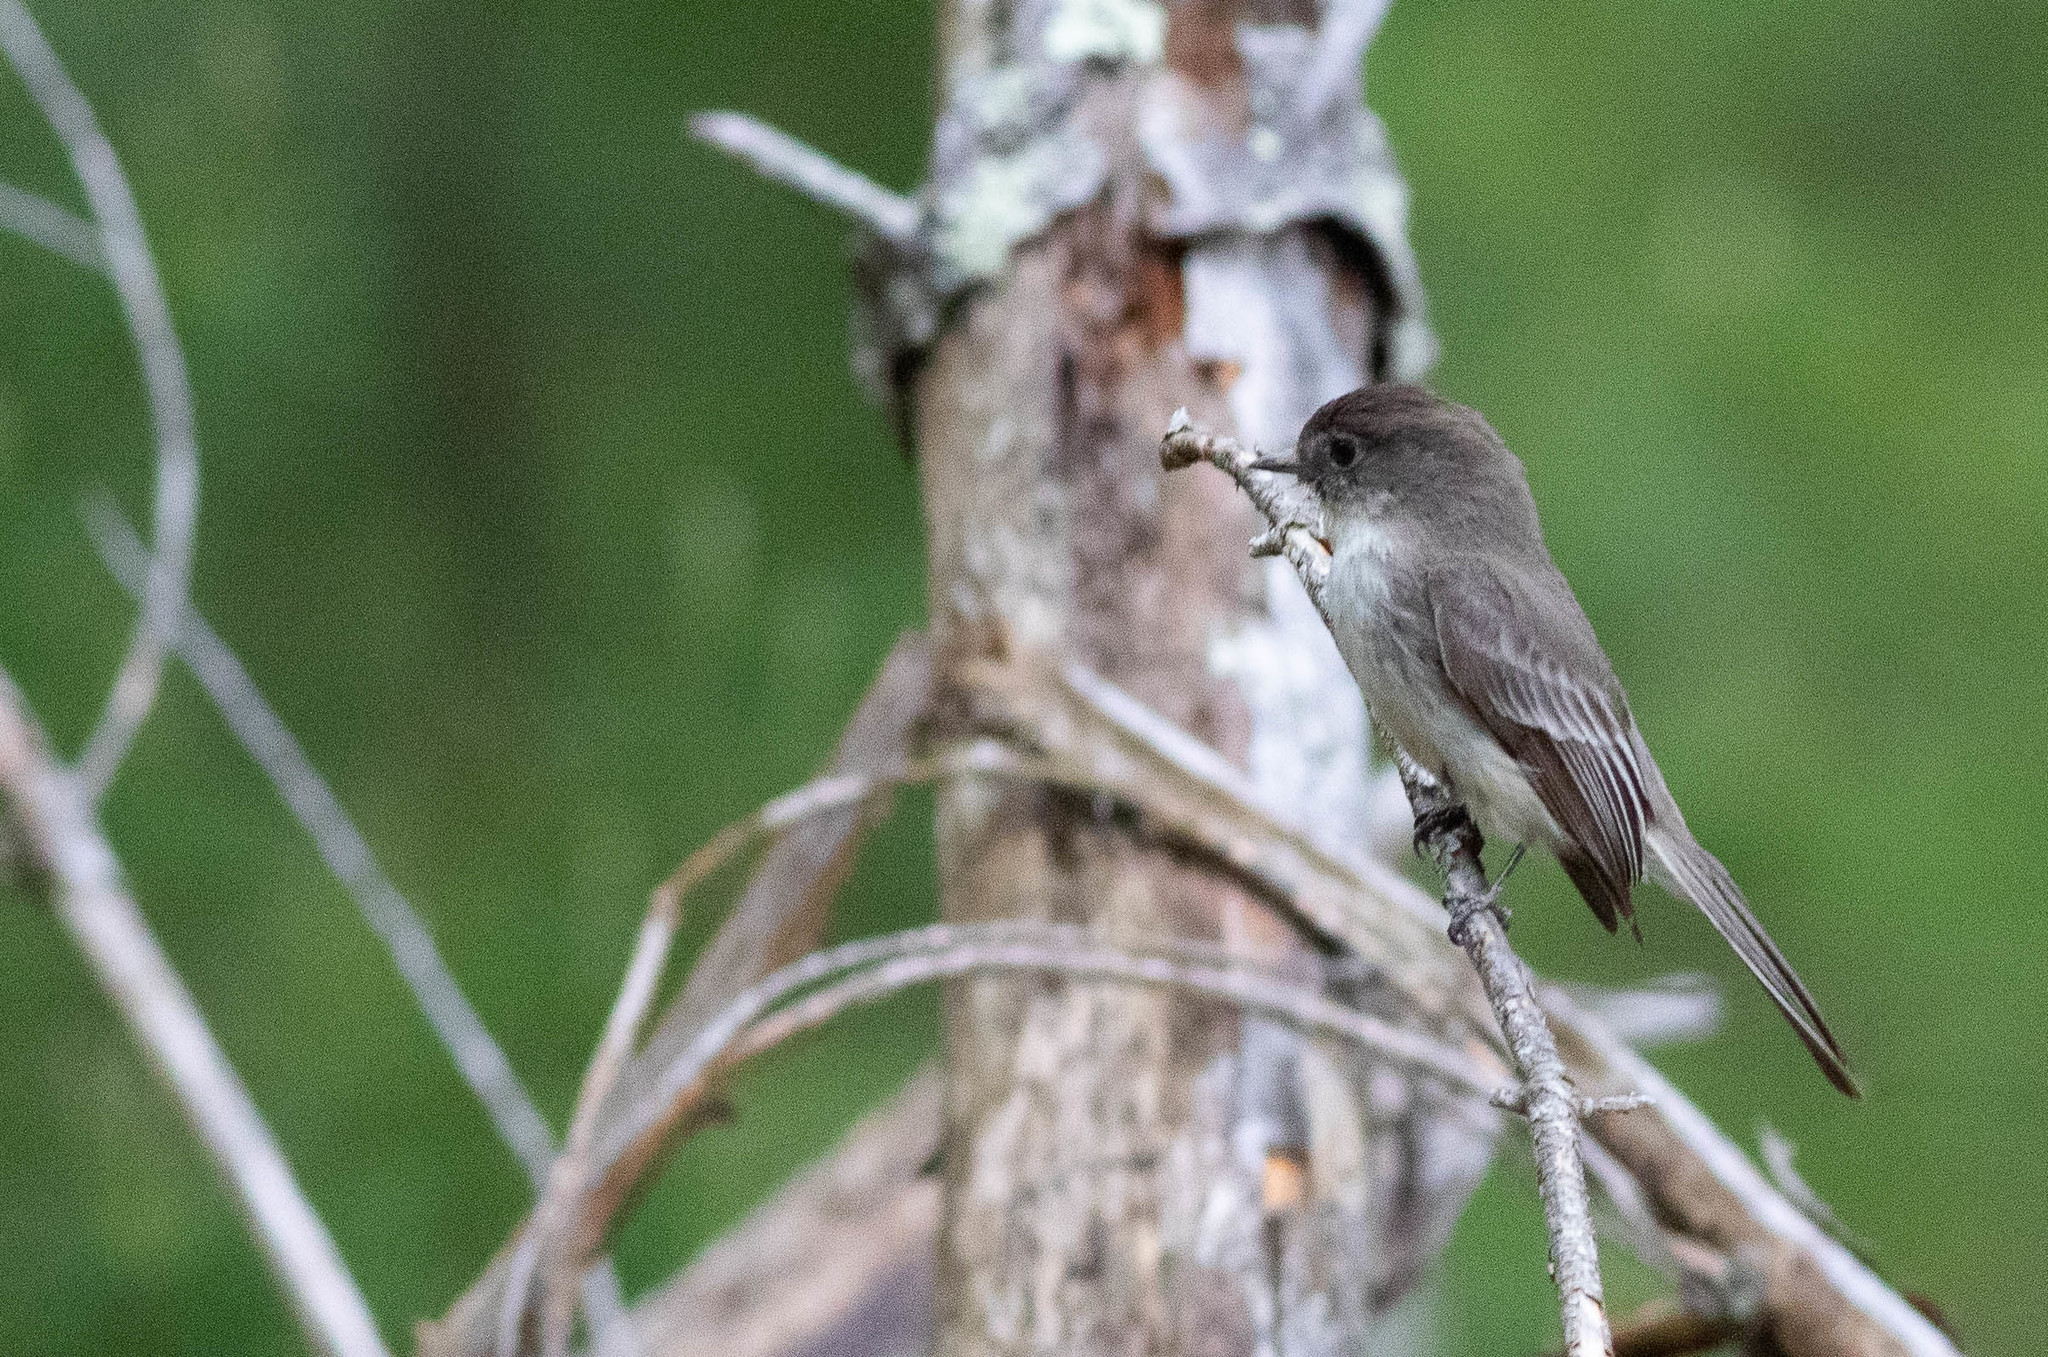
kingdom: Animalia
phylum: Chordata
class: Aves
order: Passeriformes
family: Tyrannidae
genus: Sayornis
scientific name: Sayornis phoebe
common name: Eastern phoebe
